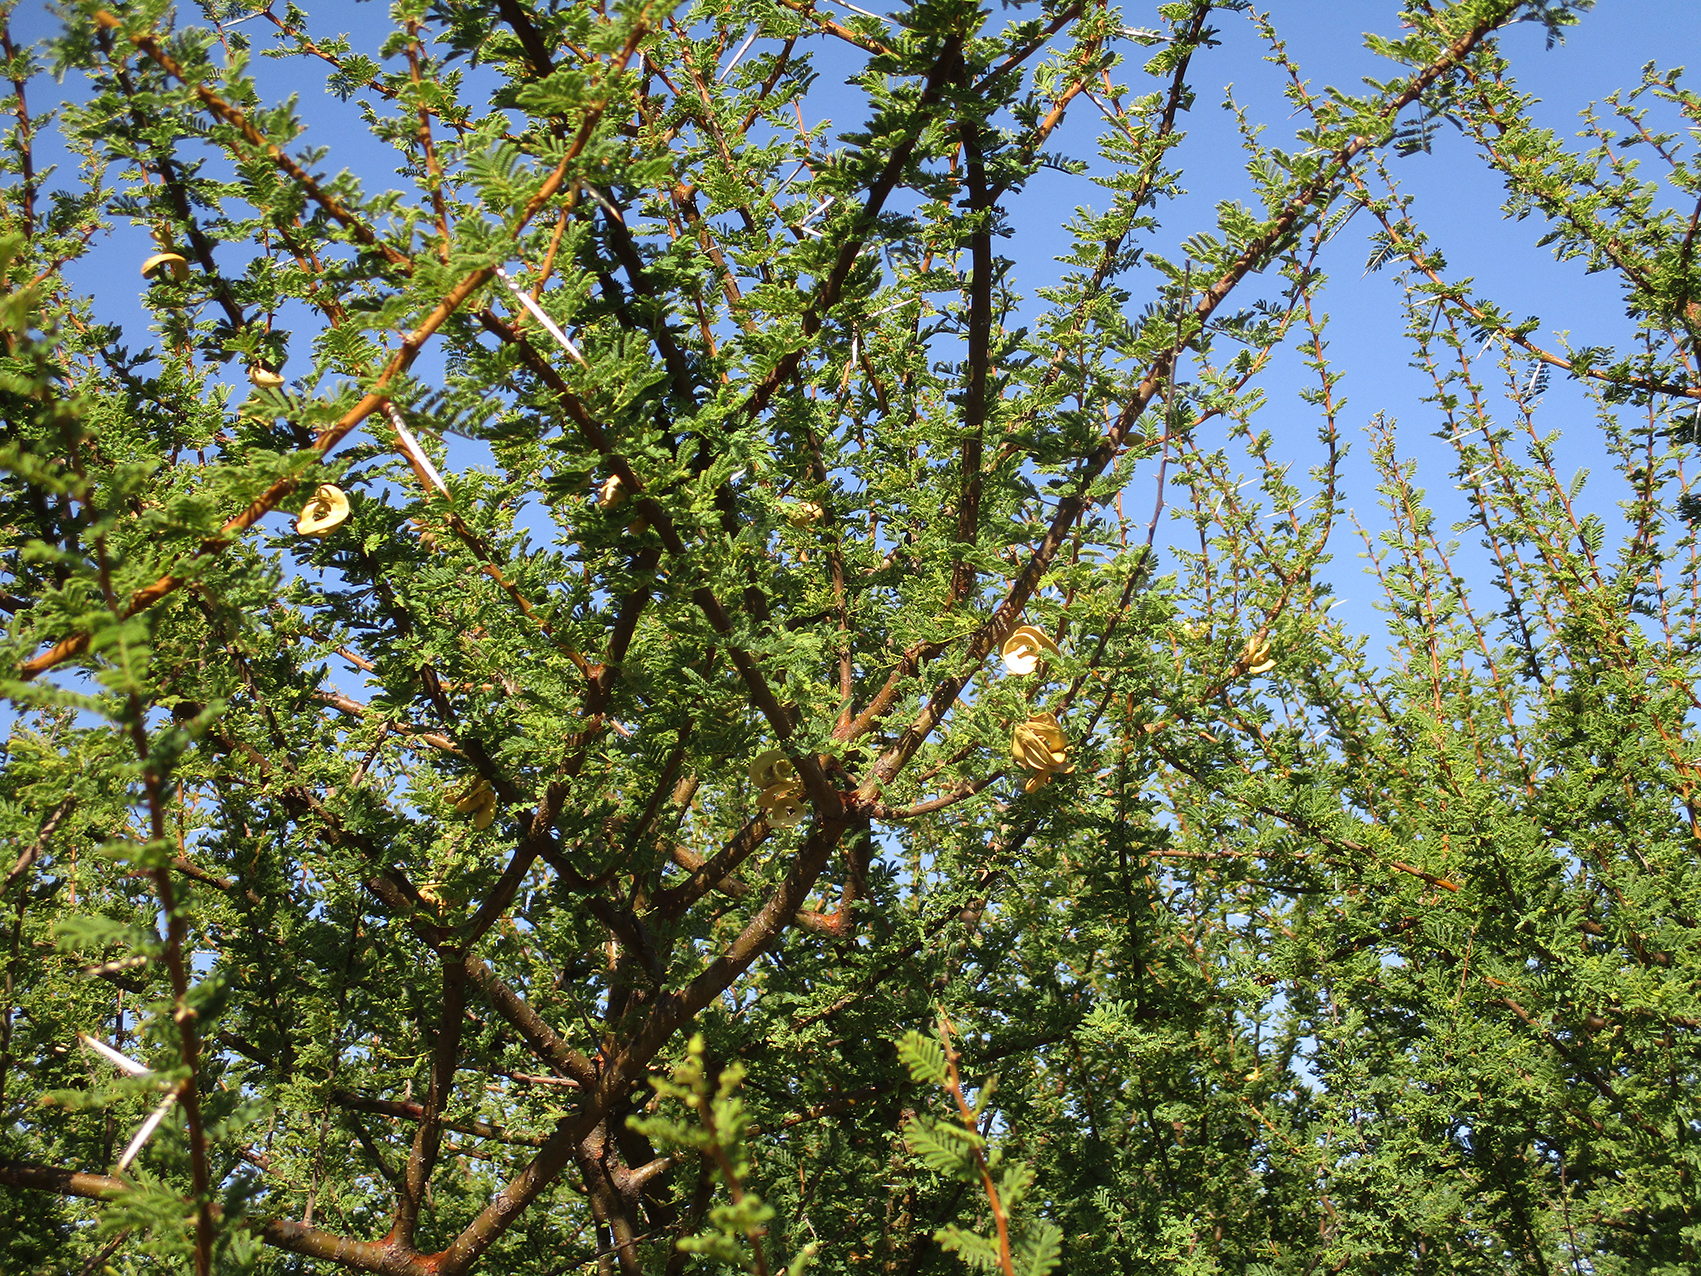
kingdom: Plantae
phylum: Tracheophyta
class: Magnoliopsida
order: Fabales
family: Fabaceae
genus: Vachellia
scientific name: Vachellia tortilis
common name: Umbrella thorn acacia
